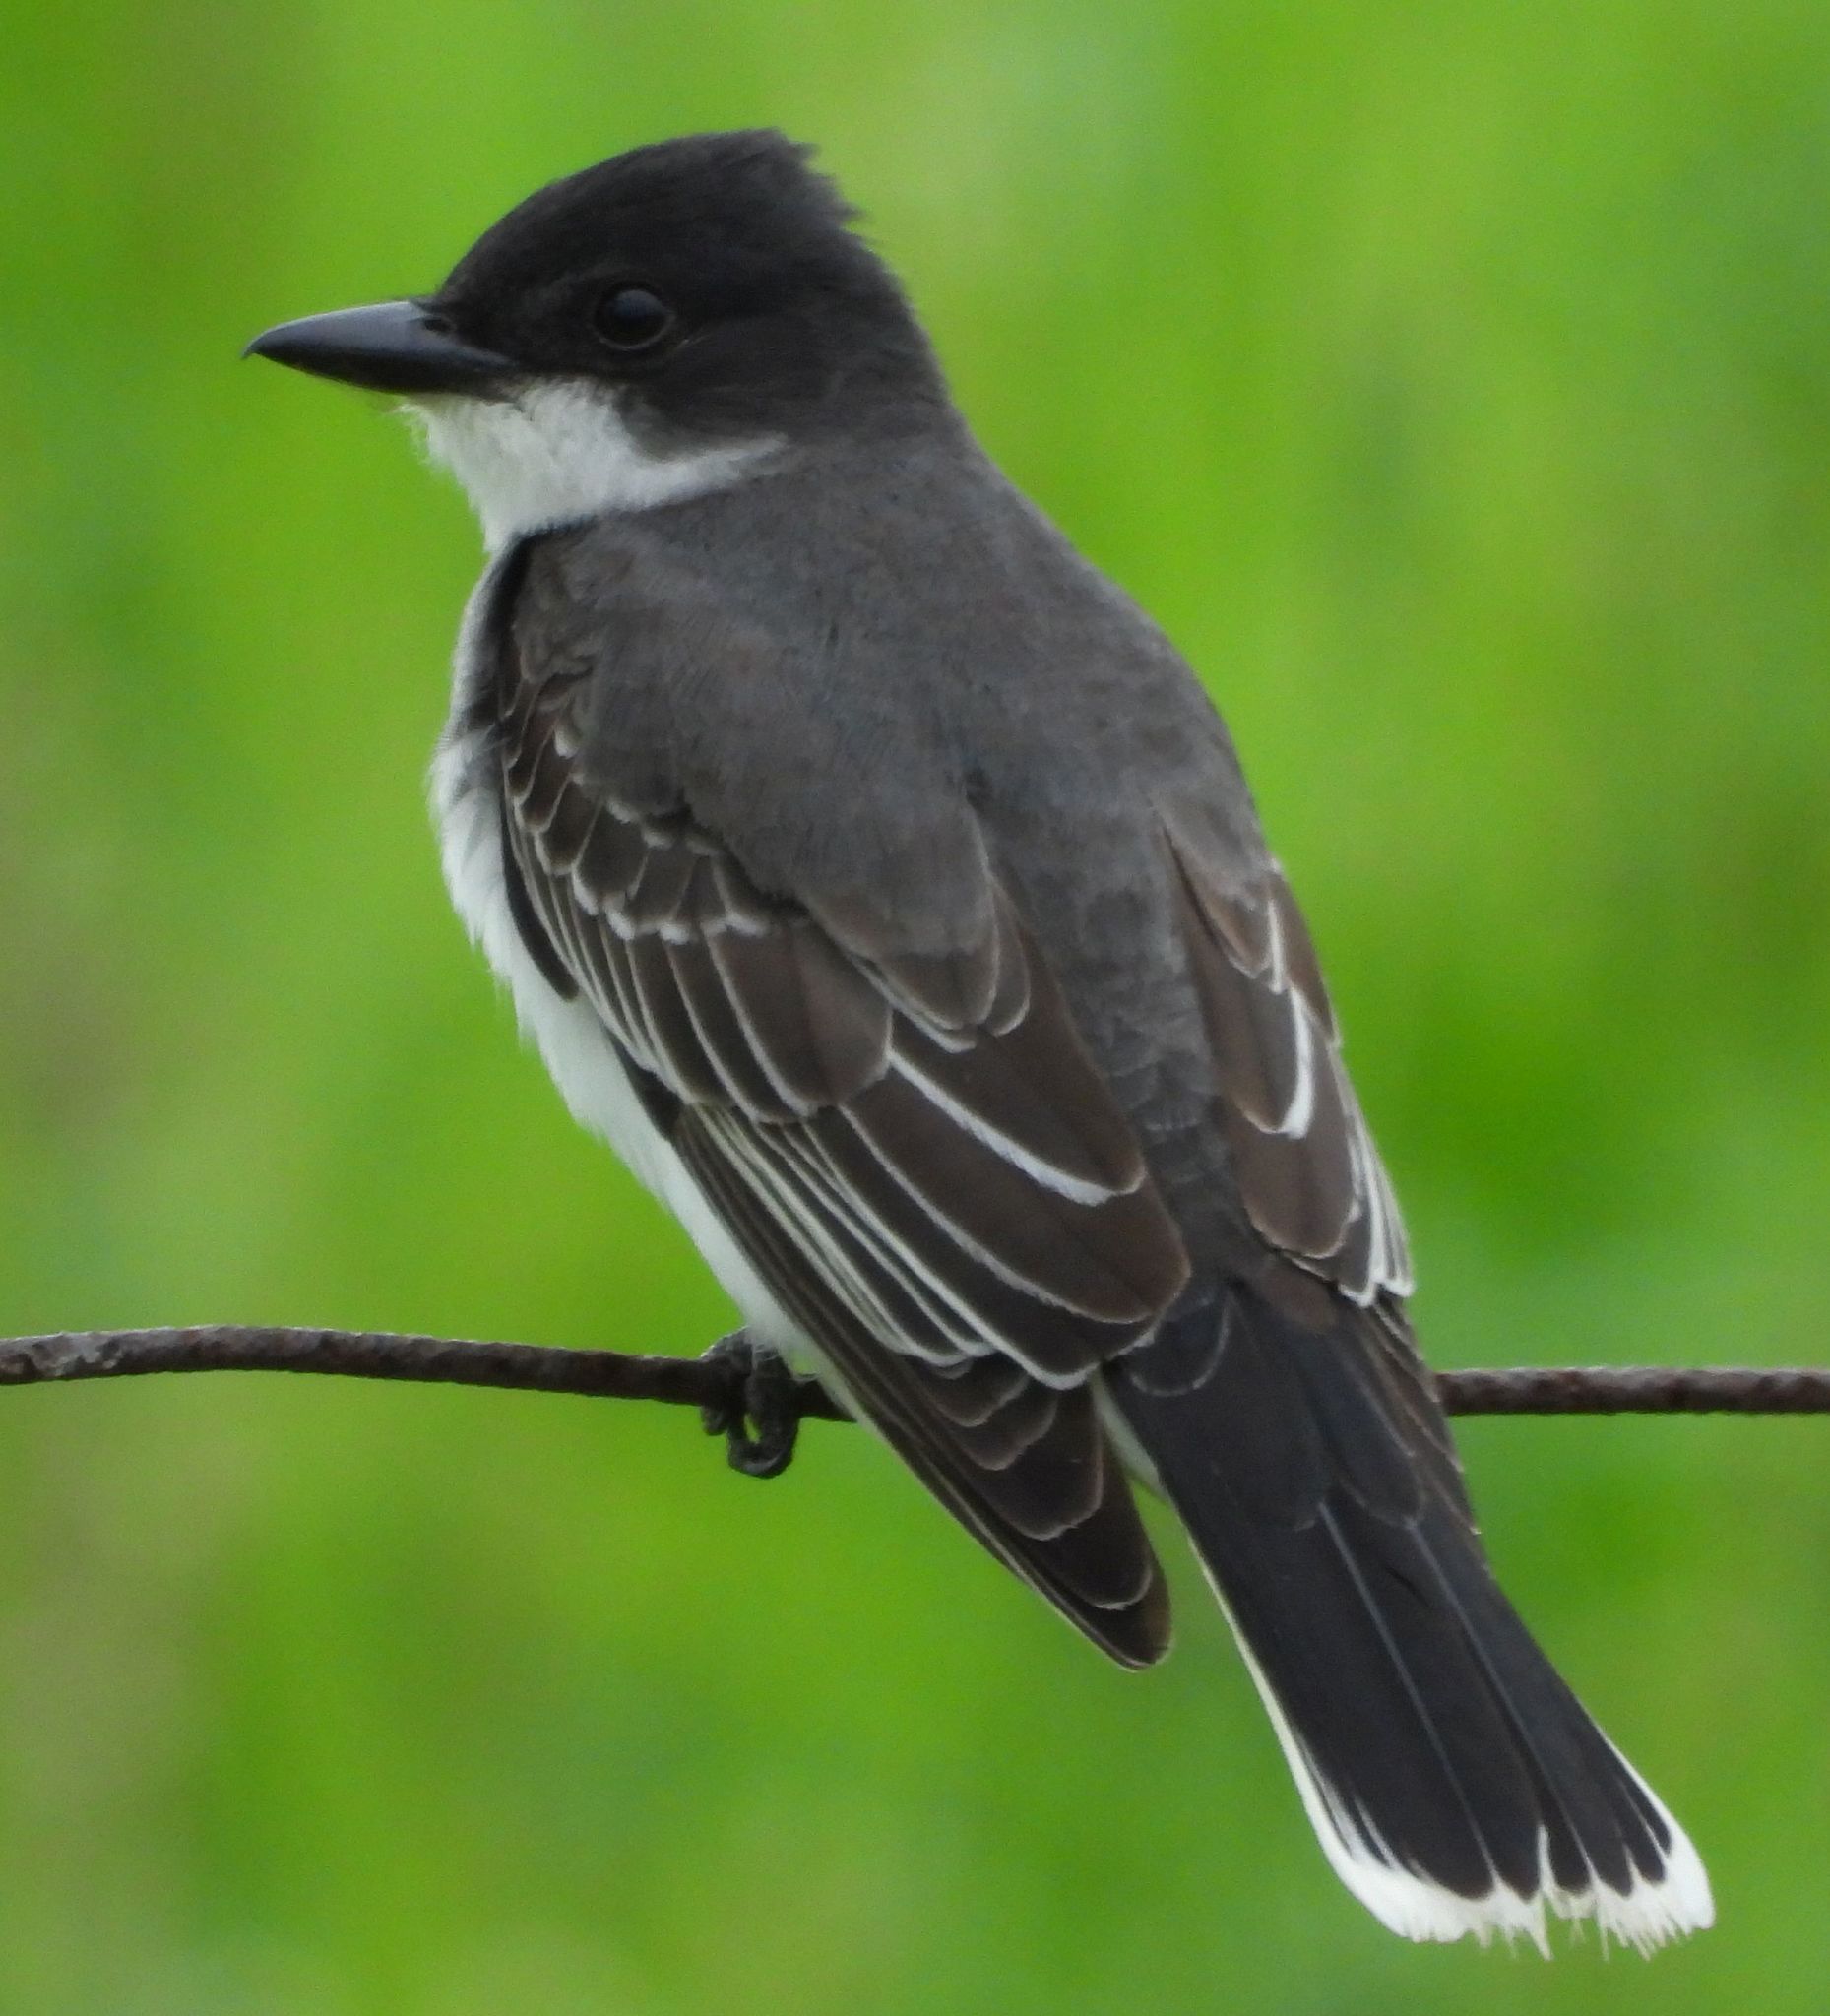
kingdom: Animalia
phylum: Chordata
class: Aves
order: Passeriformes
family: Tyrannidae
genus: Tyrannus
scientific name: Tyrannus tyrannus
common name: Eastern kingbird
